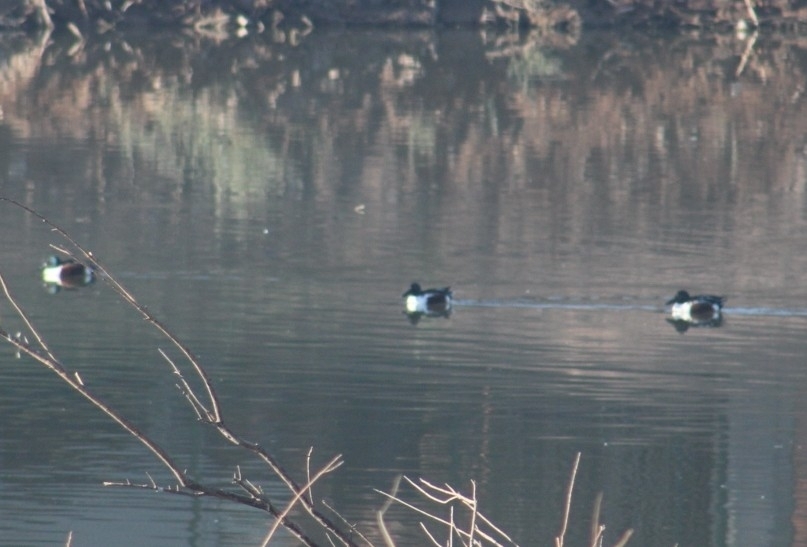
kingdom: Animalia
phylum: Chordata
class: Aves
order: Anseriformes
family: Anatidae
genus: Spatula
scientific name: Spatula clypeata
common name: Northern shoveler
